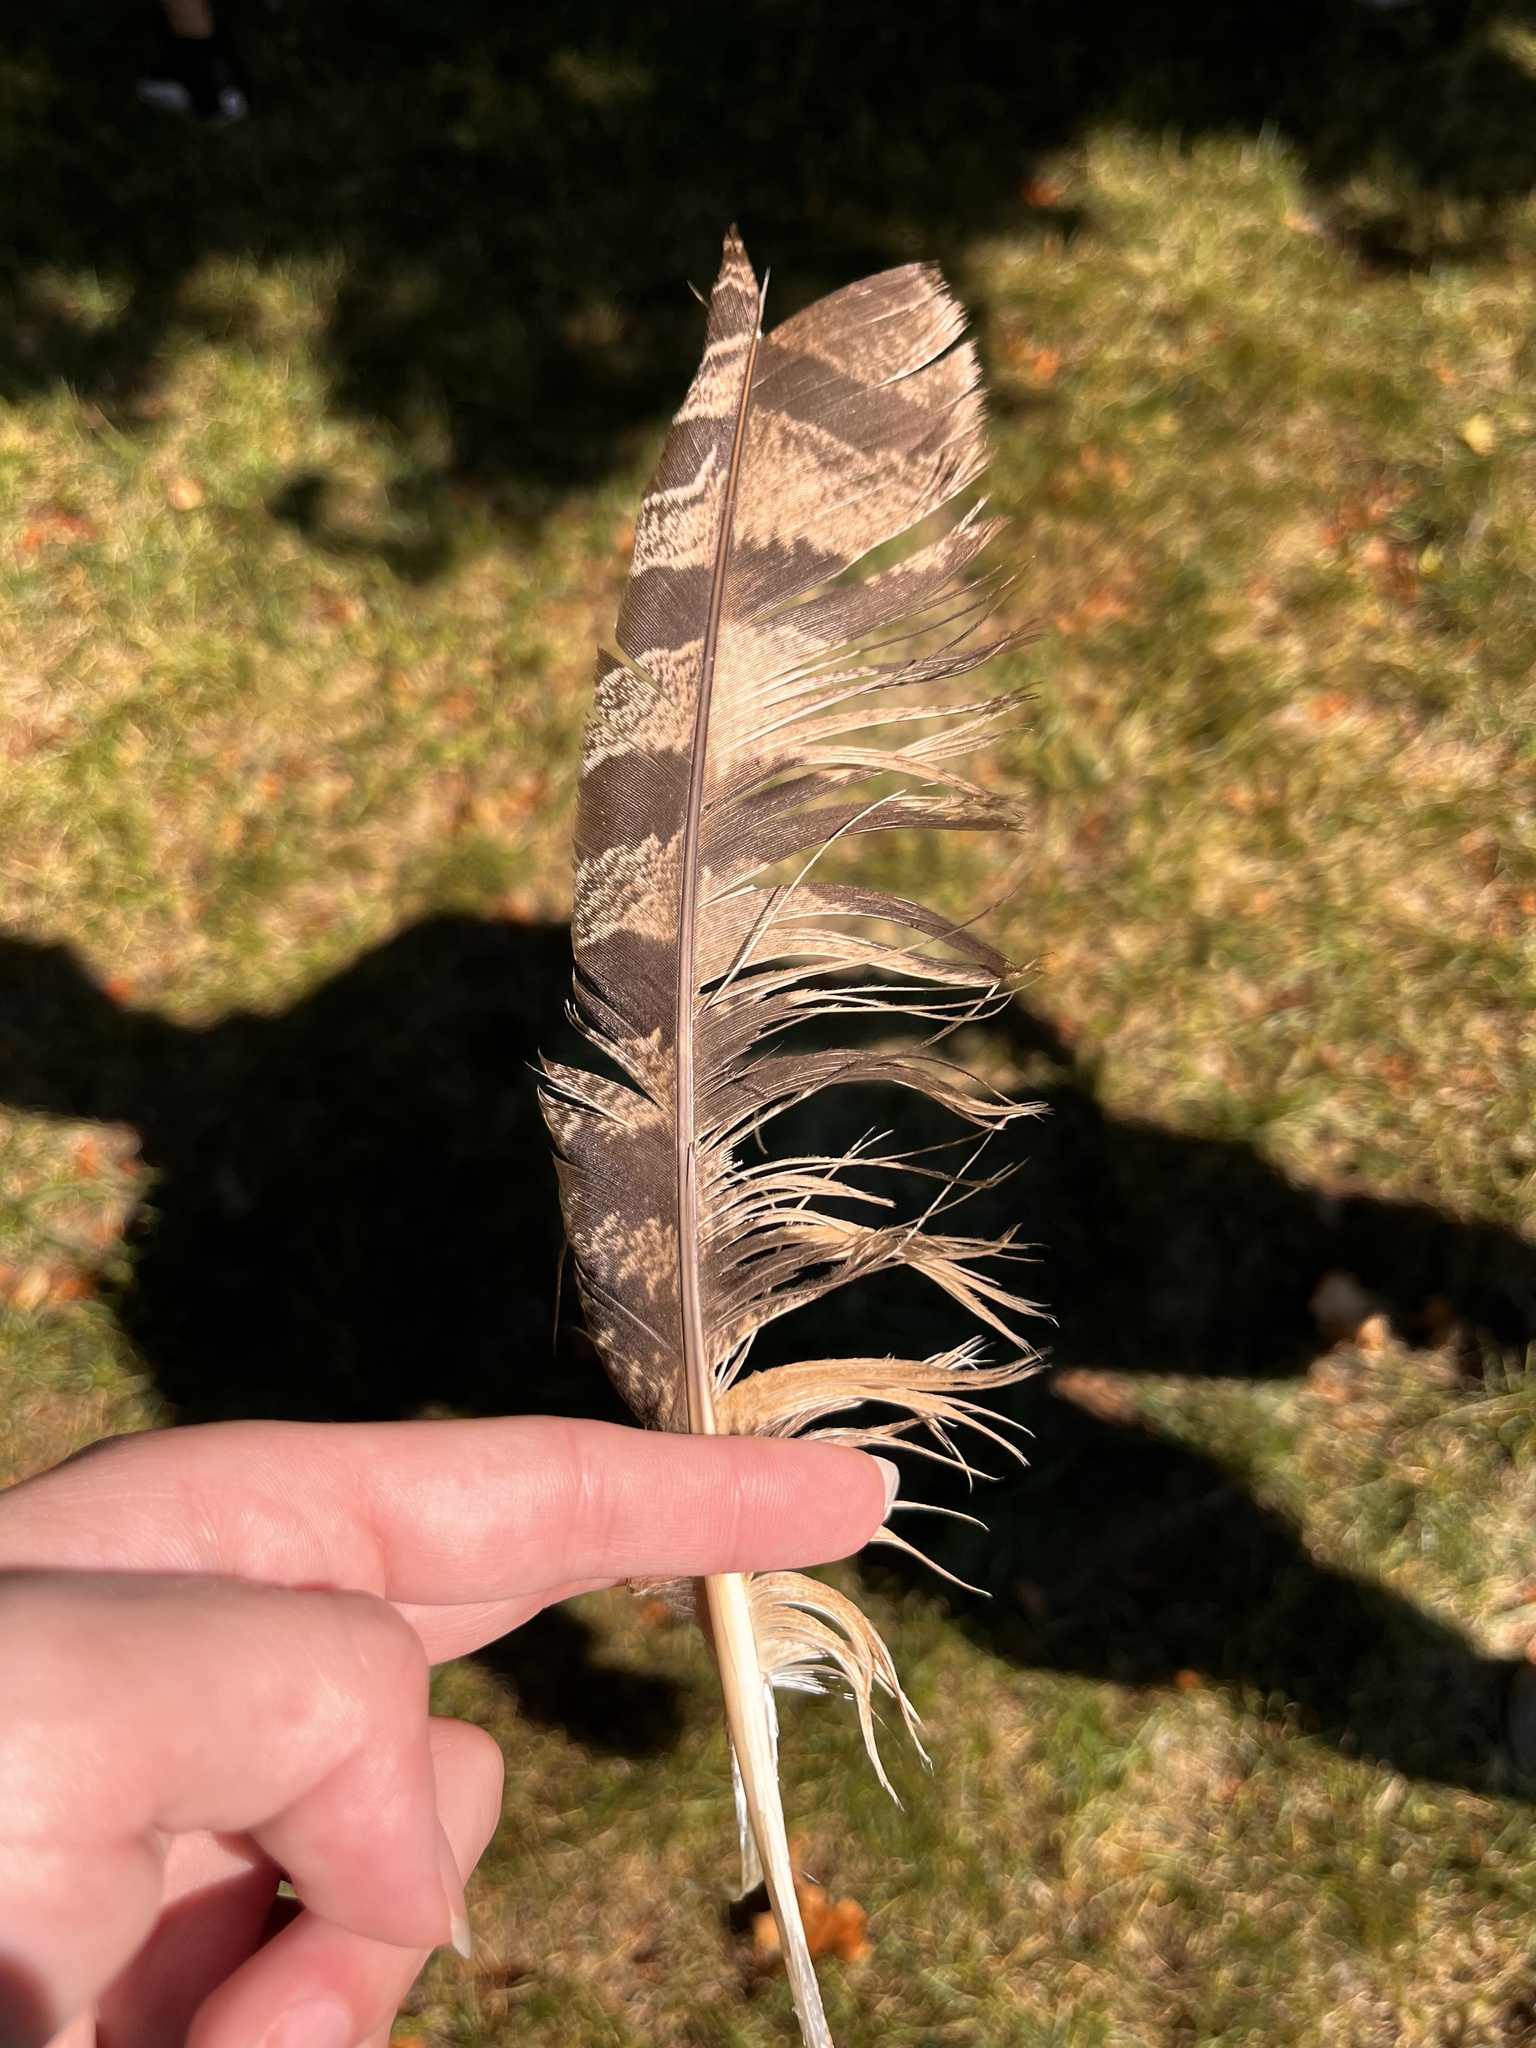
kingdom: Animalia
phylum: Chordata
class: Aves
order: Strigiformes
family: Strigidae
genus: Bubo
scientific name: Bubo virginianus
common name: Great horned owl
